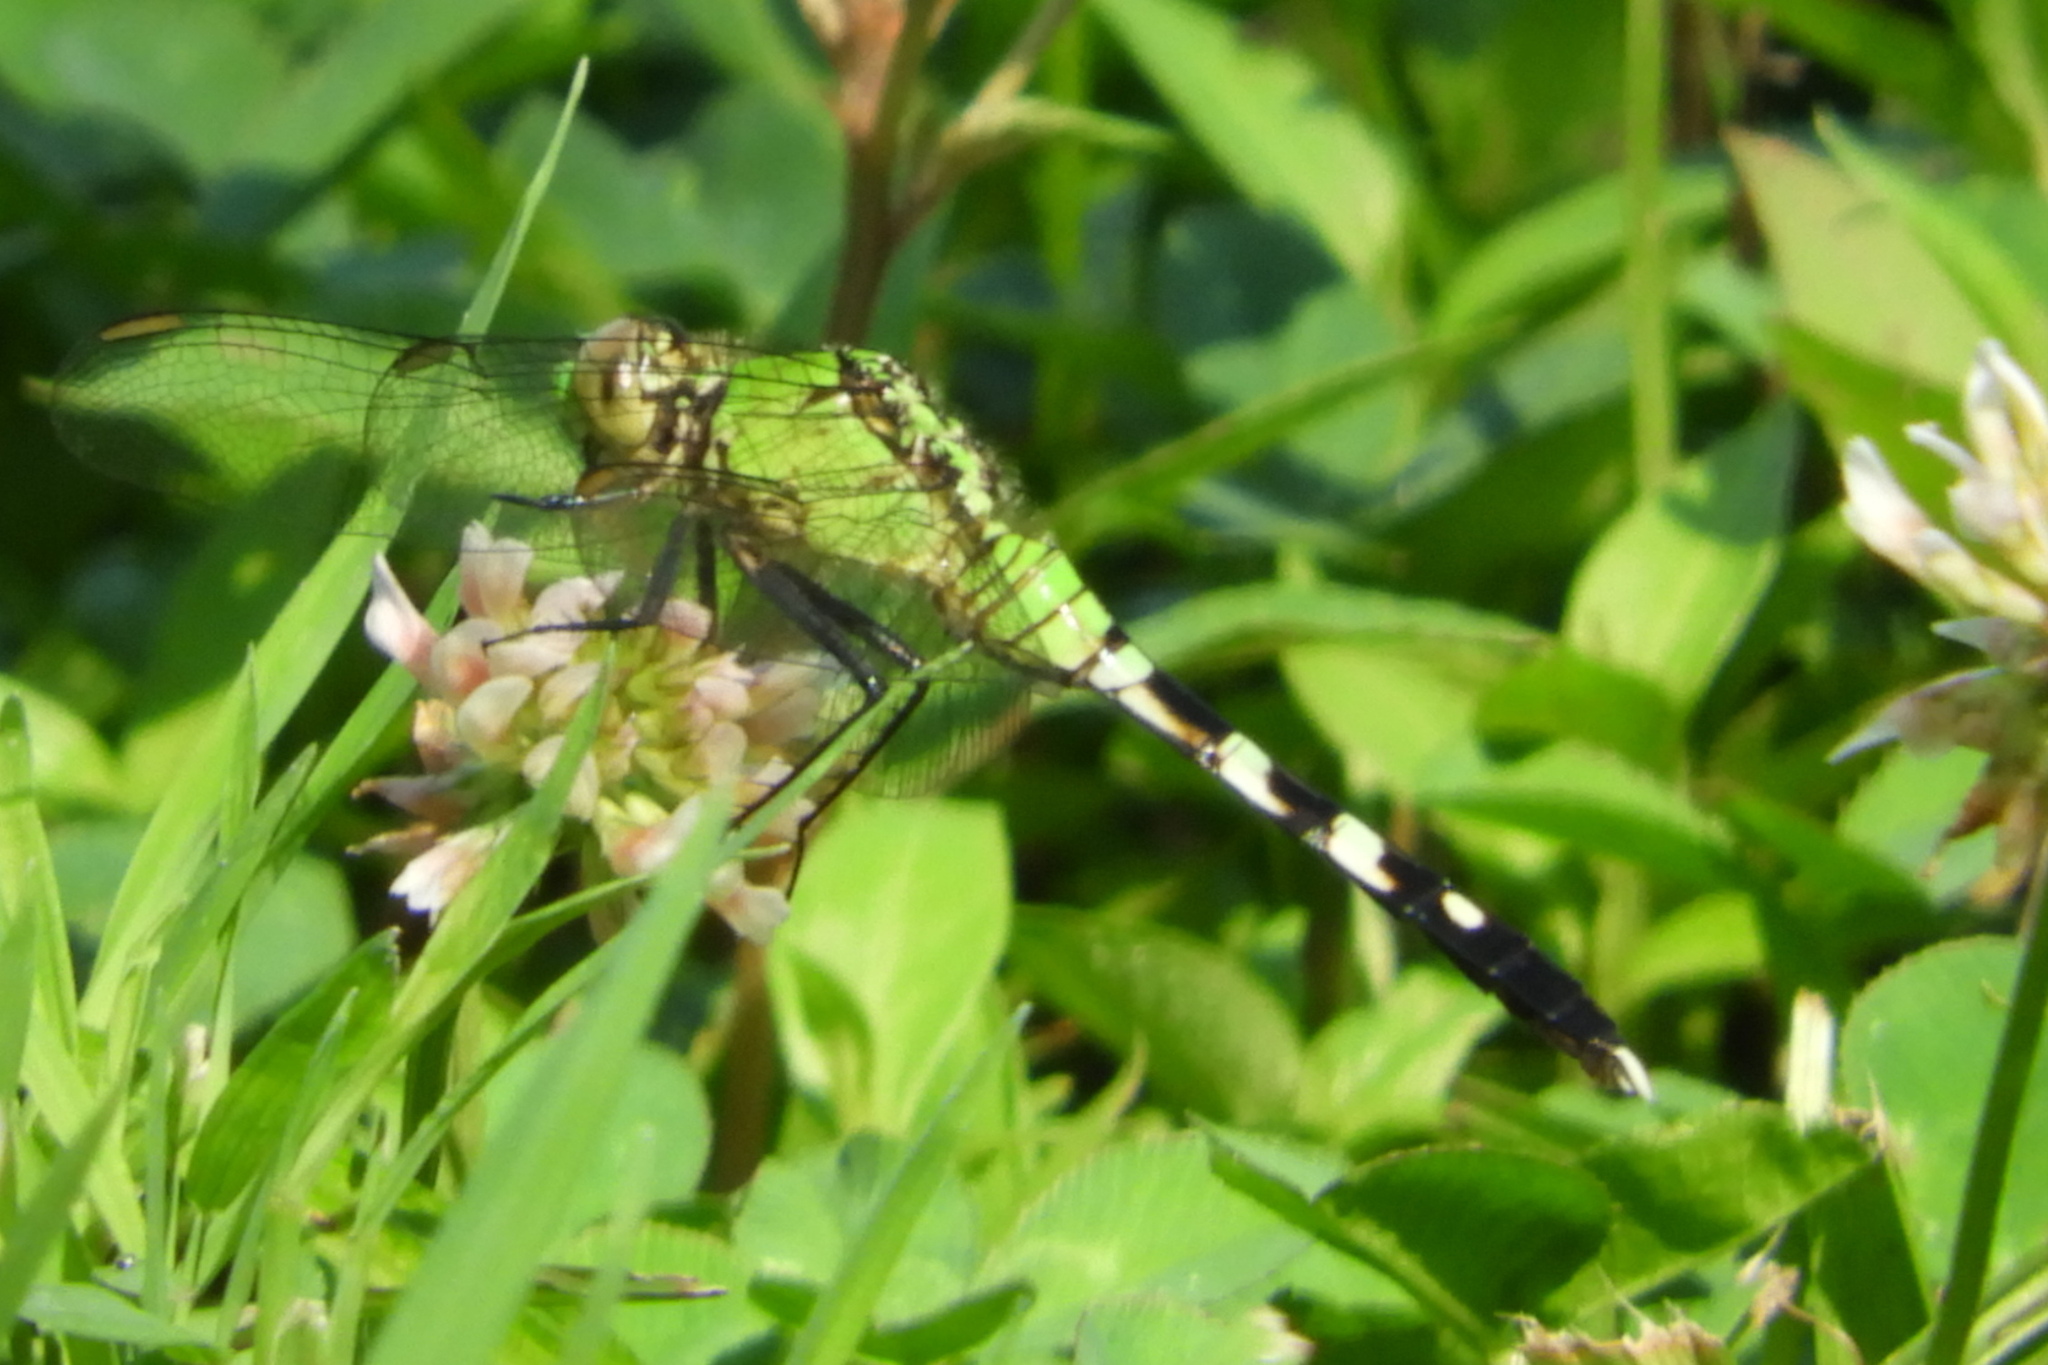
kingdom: Animalia
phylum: Arthropoda
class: Insecta
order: Odonata
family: Libellulidae
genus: Erythemis
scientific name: Erythemis simplicicollis
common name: Eastern pondhawk
